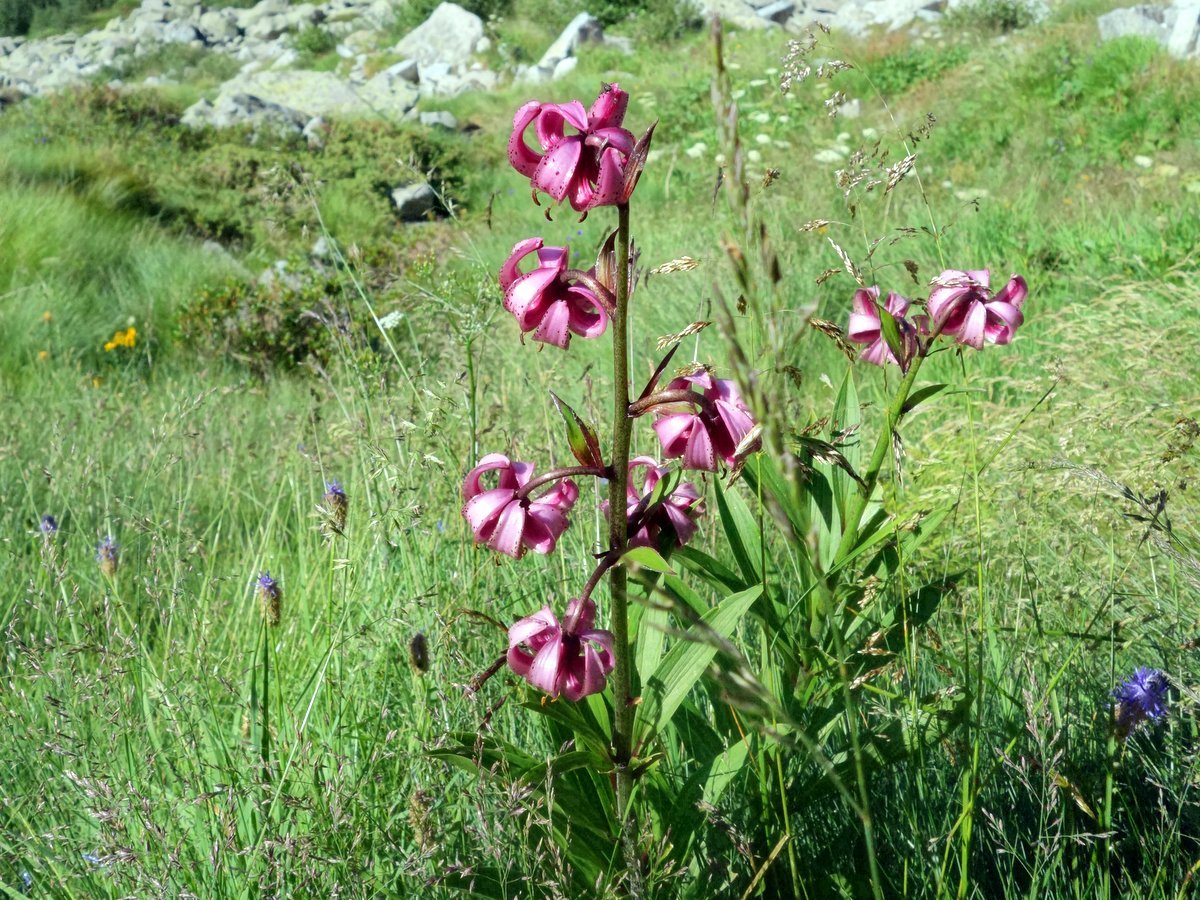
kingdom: Plantae
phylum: Tracheophyta
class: Liliopsida
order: Liliales
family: Liliaceae
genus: Lilium
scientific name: Lilium martagon
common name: Martagon lily
